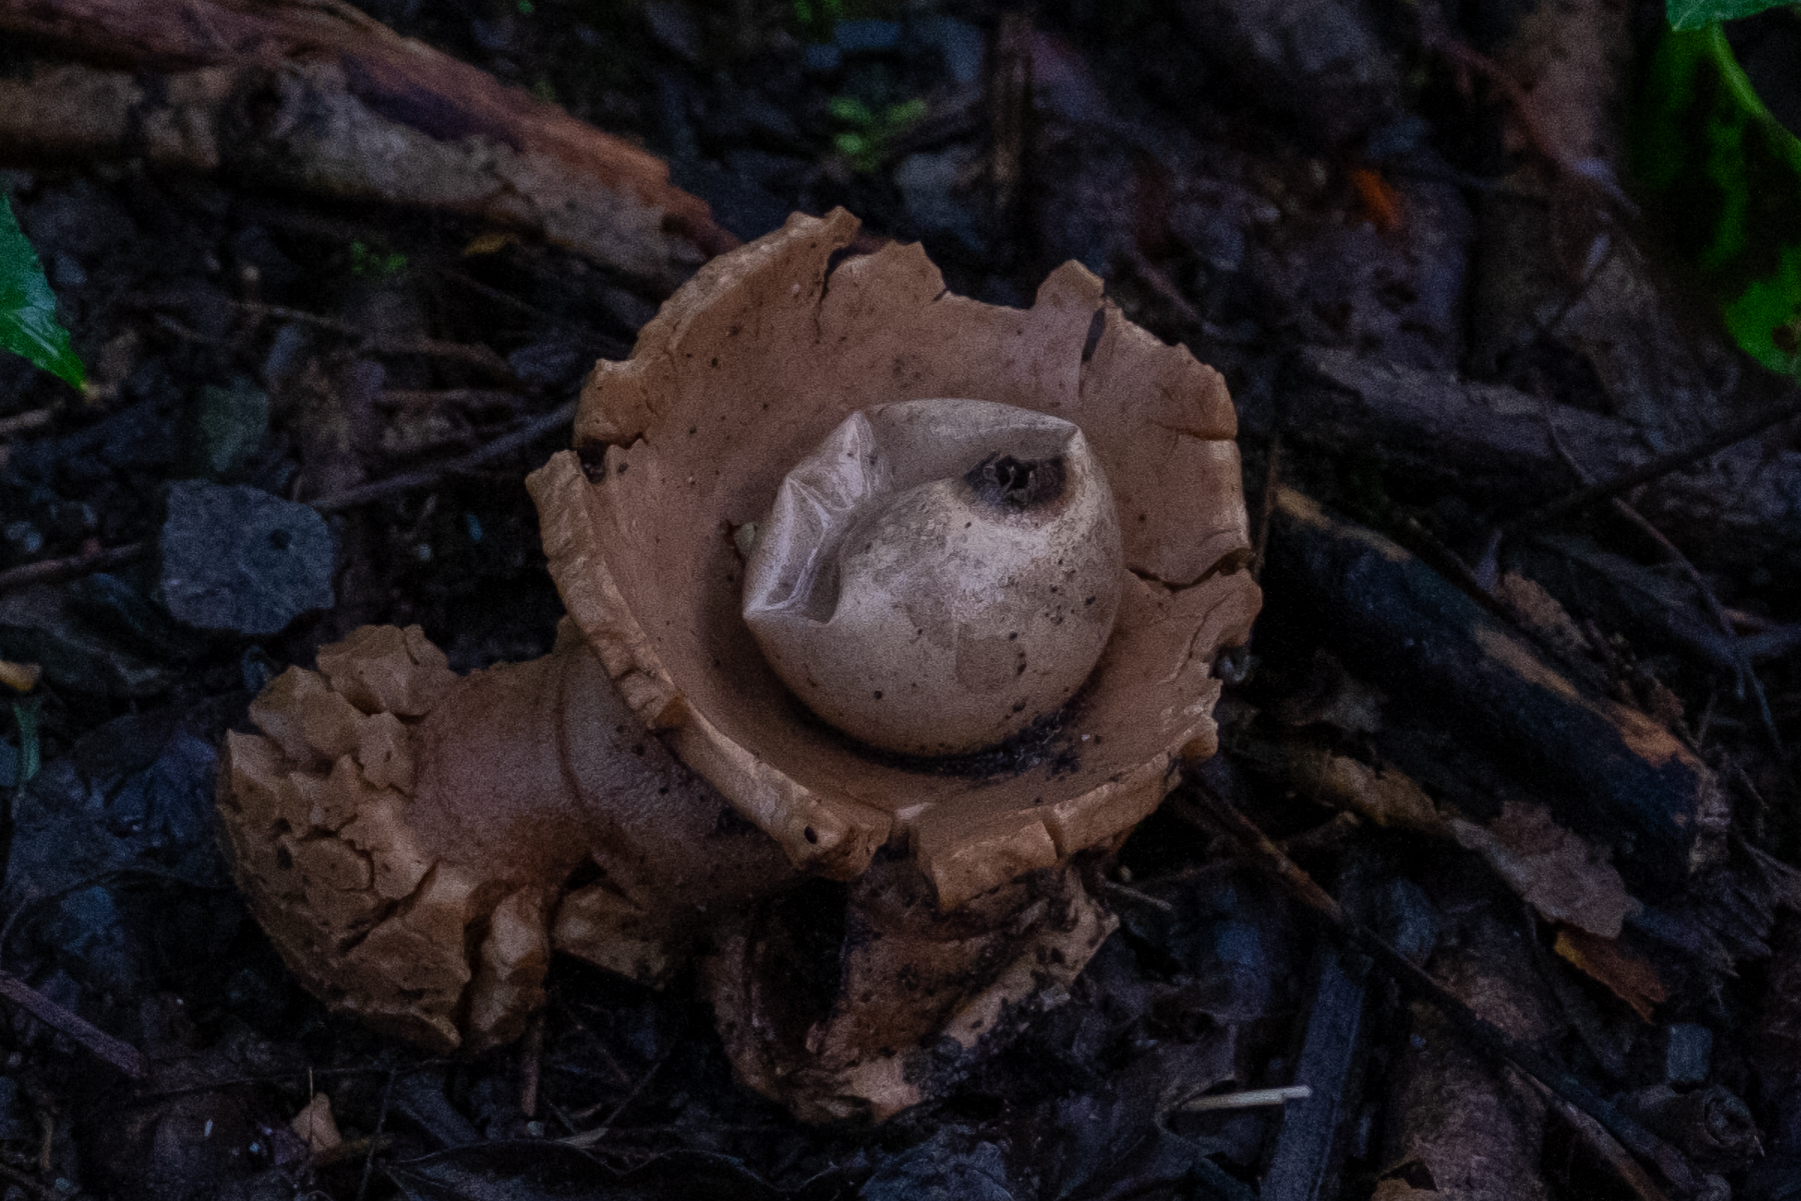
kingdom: Fungi
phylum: Basidiomycota
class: Agaricomycetes
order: Geastrales
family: Geastraceae
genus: Geastrum
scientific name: Geastrum triplex
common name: Collared earthstar
